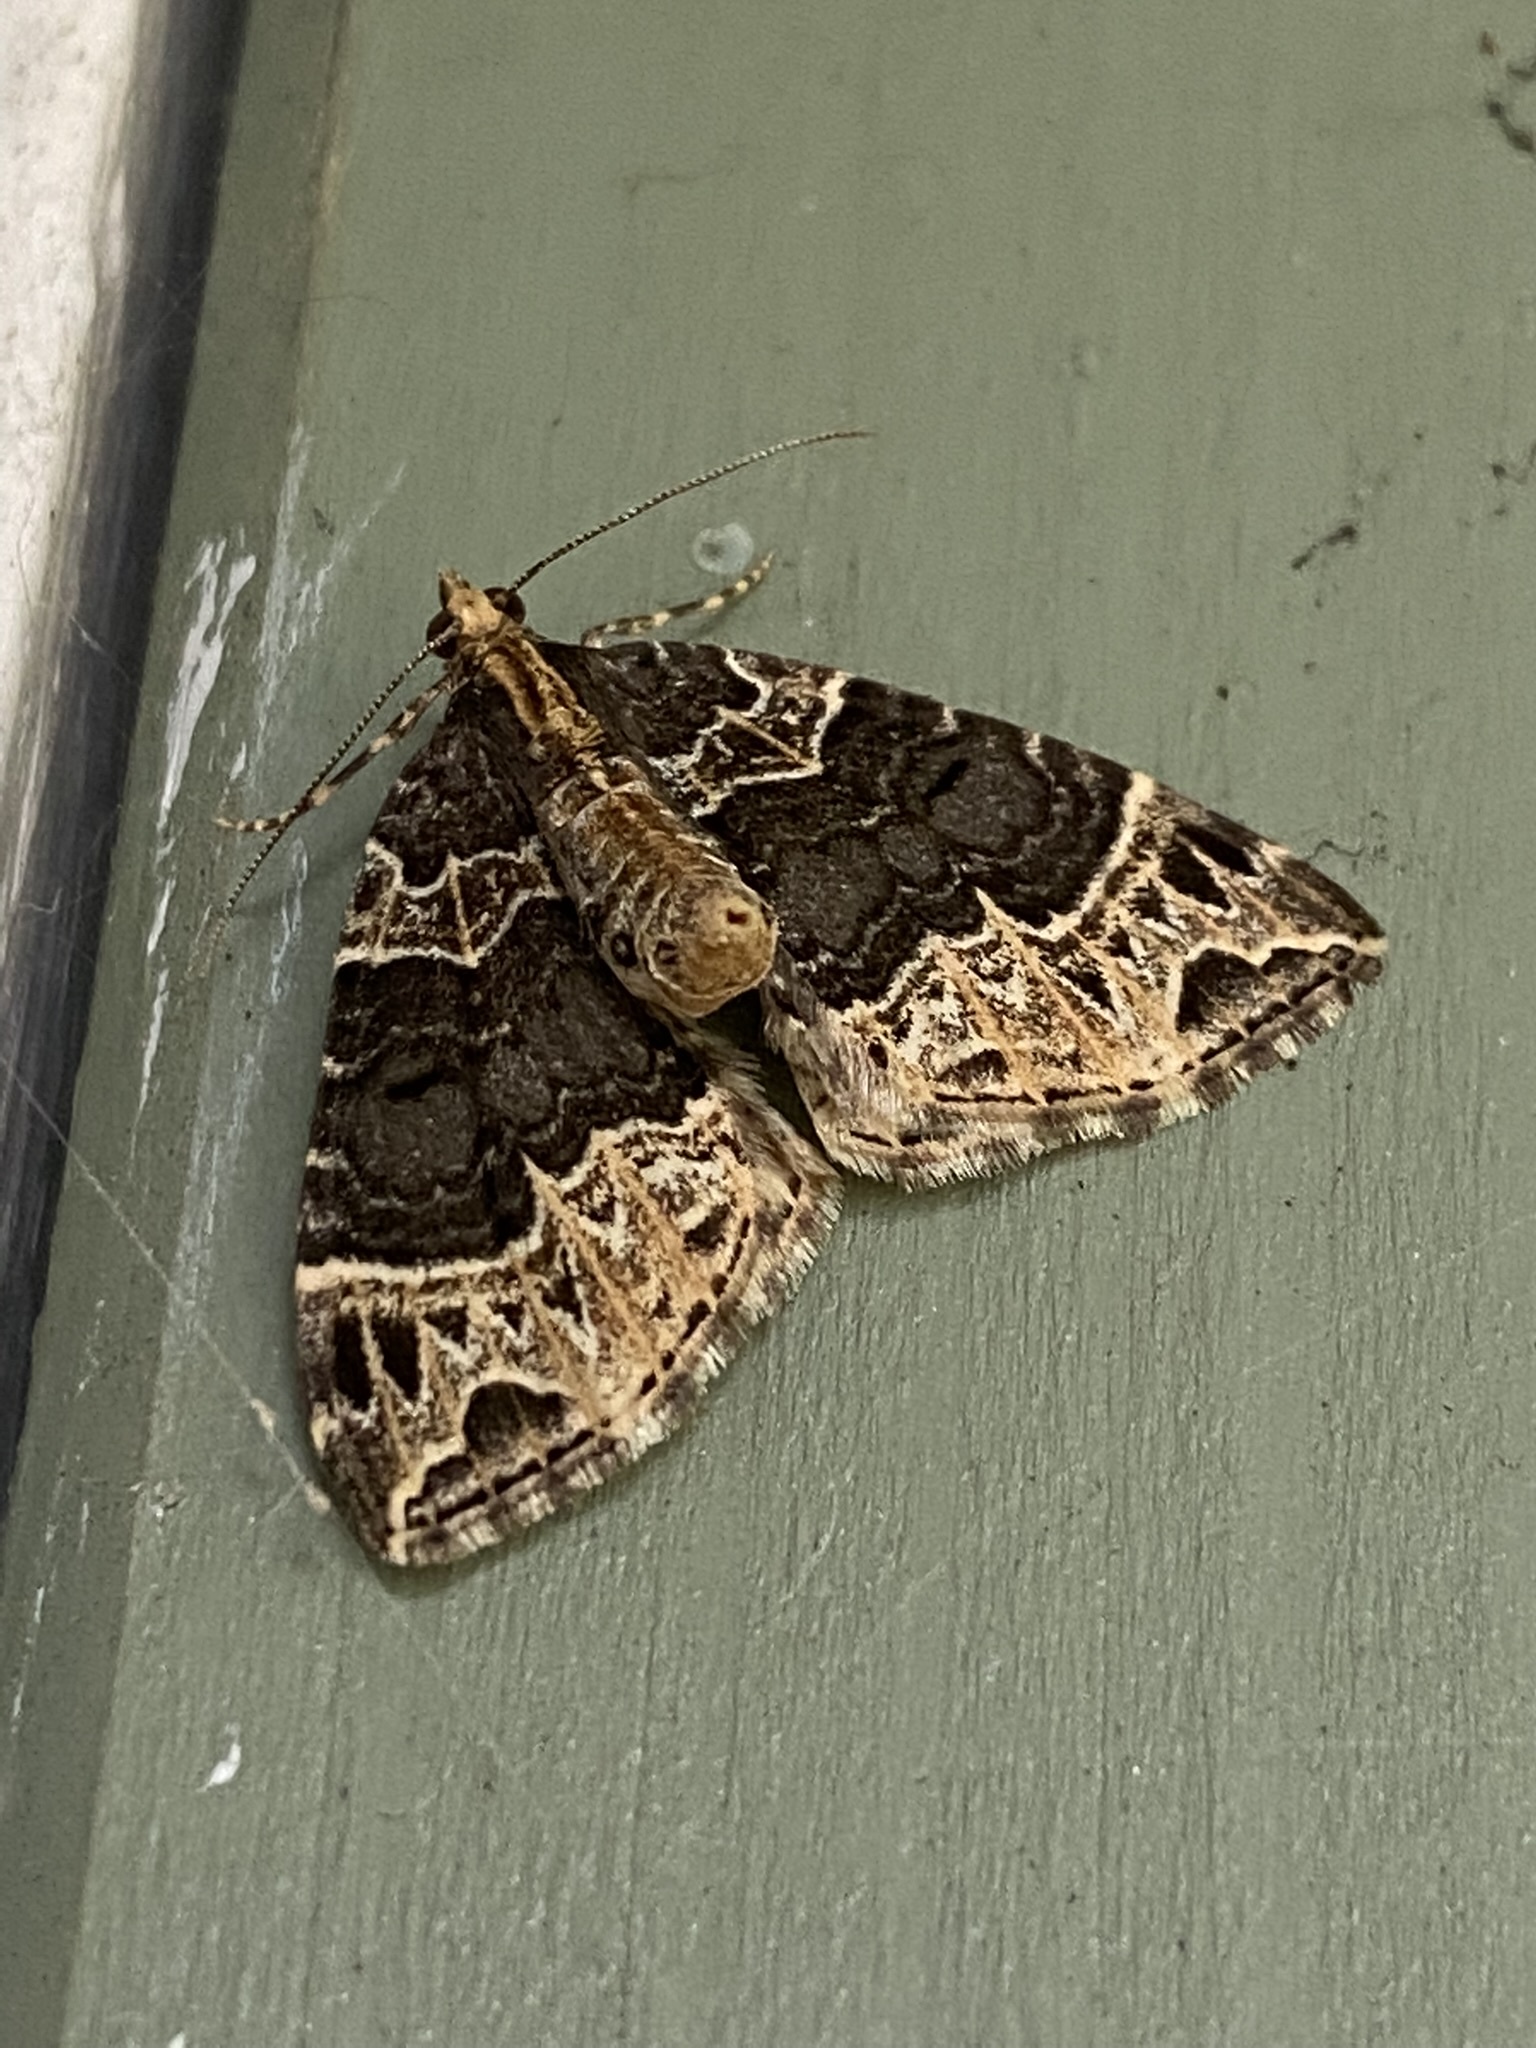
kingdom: Animalia
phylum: Arthropoda
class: Insecta
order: Lepidoptera
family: Geometridae
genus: Ecliptopera
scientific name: Ecliptopera silaceata
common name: Small phoenix
